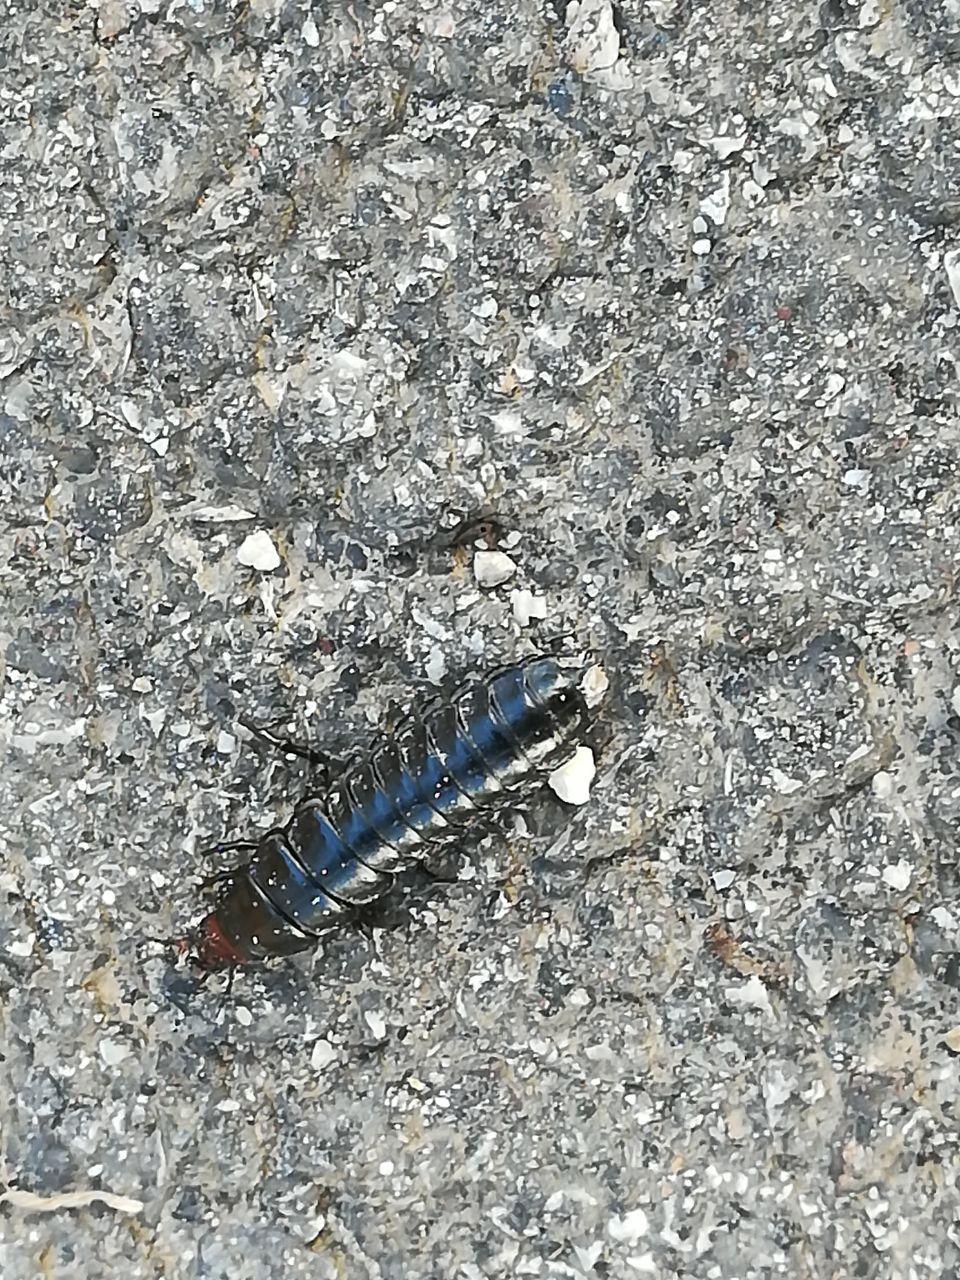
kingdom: Animalia
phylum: Arthropoda
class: Insecta
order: Coleoptera
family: Carabidae
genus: Carabus
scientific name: Carabus germarii
